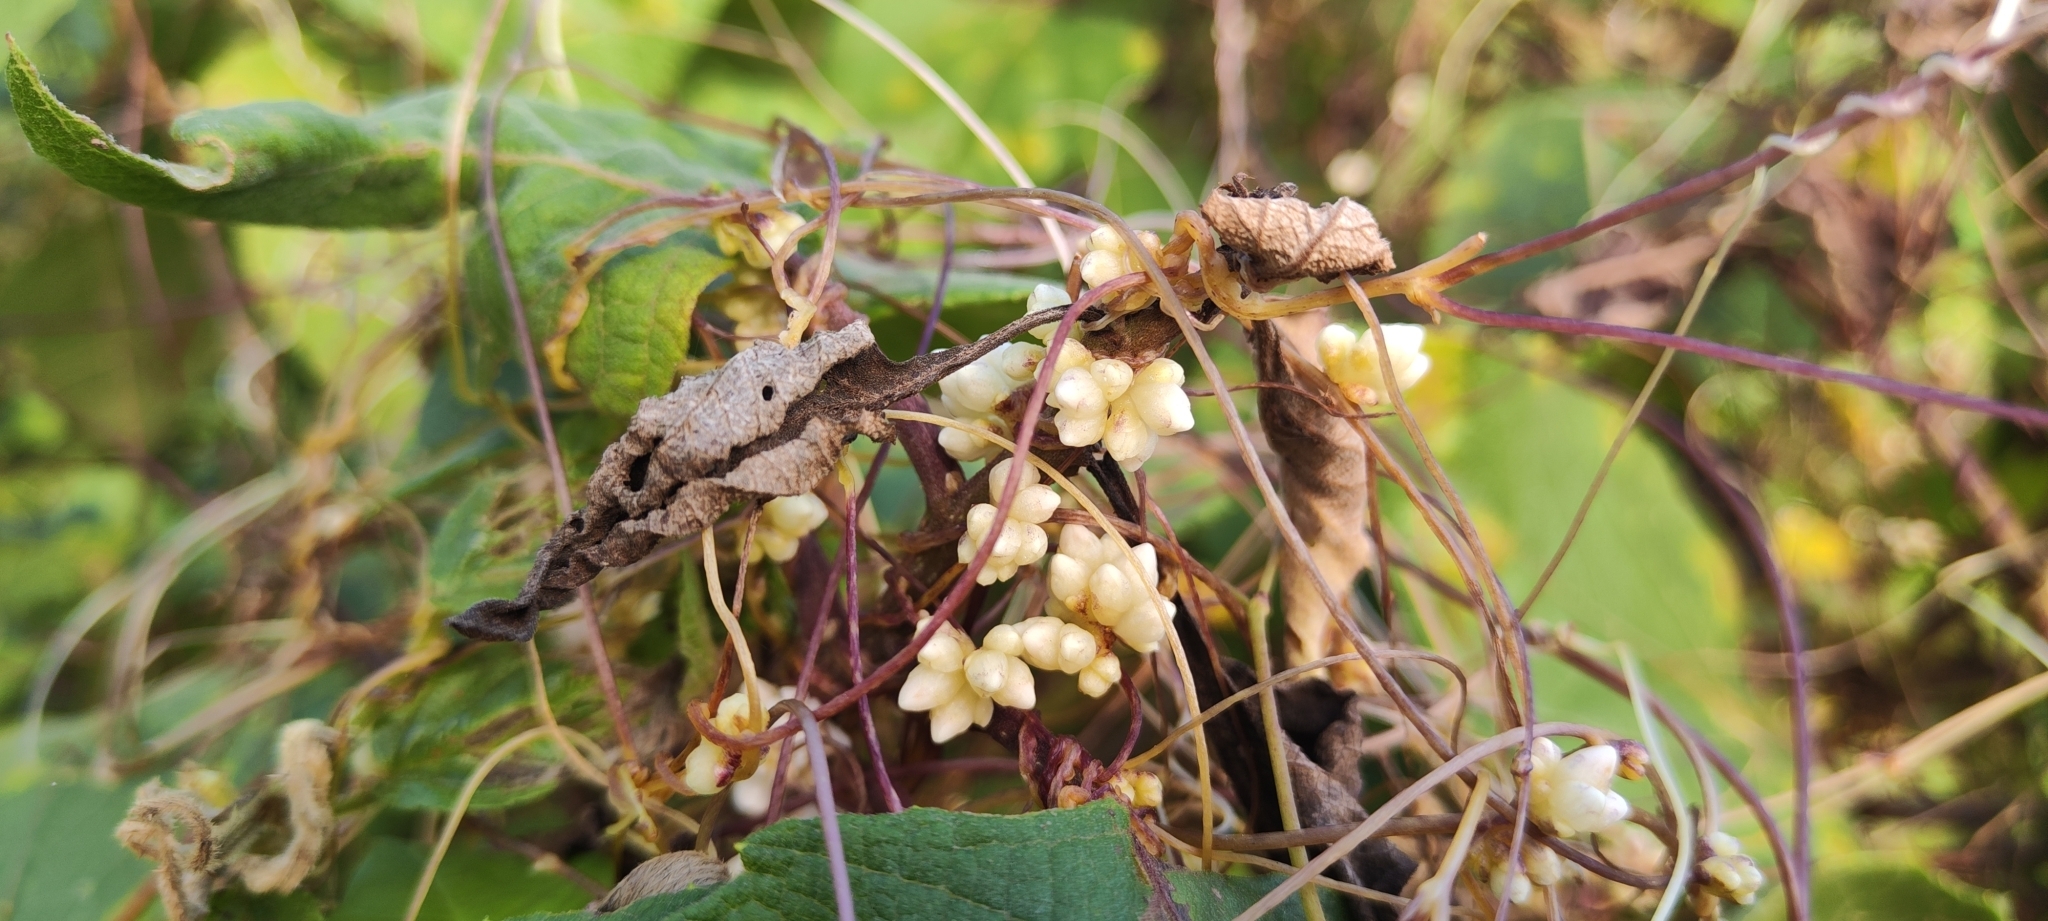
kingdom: Plantae
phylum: Tracheophyta
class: Magnoliopsida
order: Solanales
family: Convolvulaceae
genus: Cuscuta
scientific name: Cuscuta grandiflora
